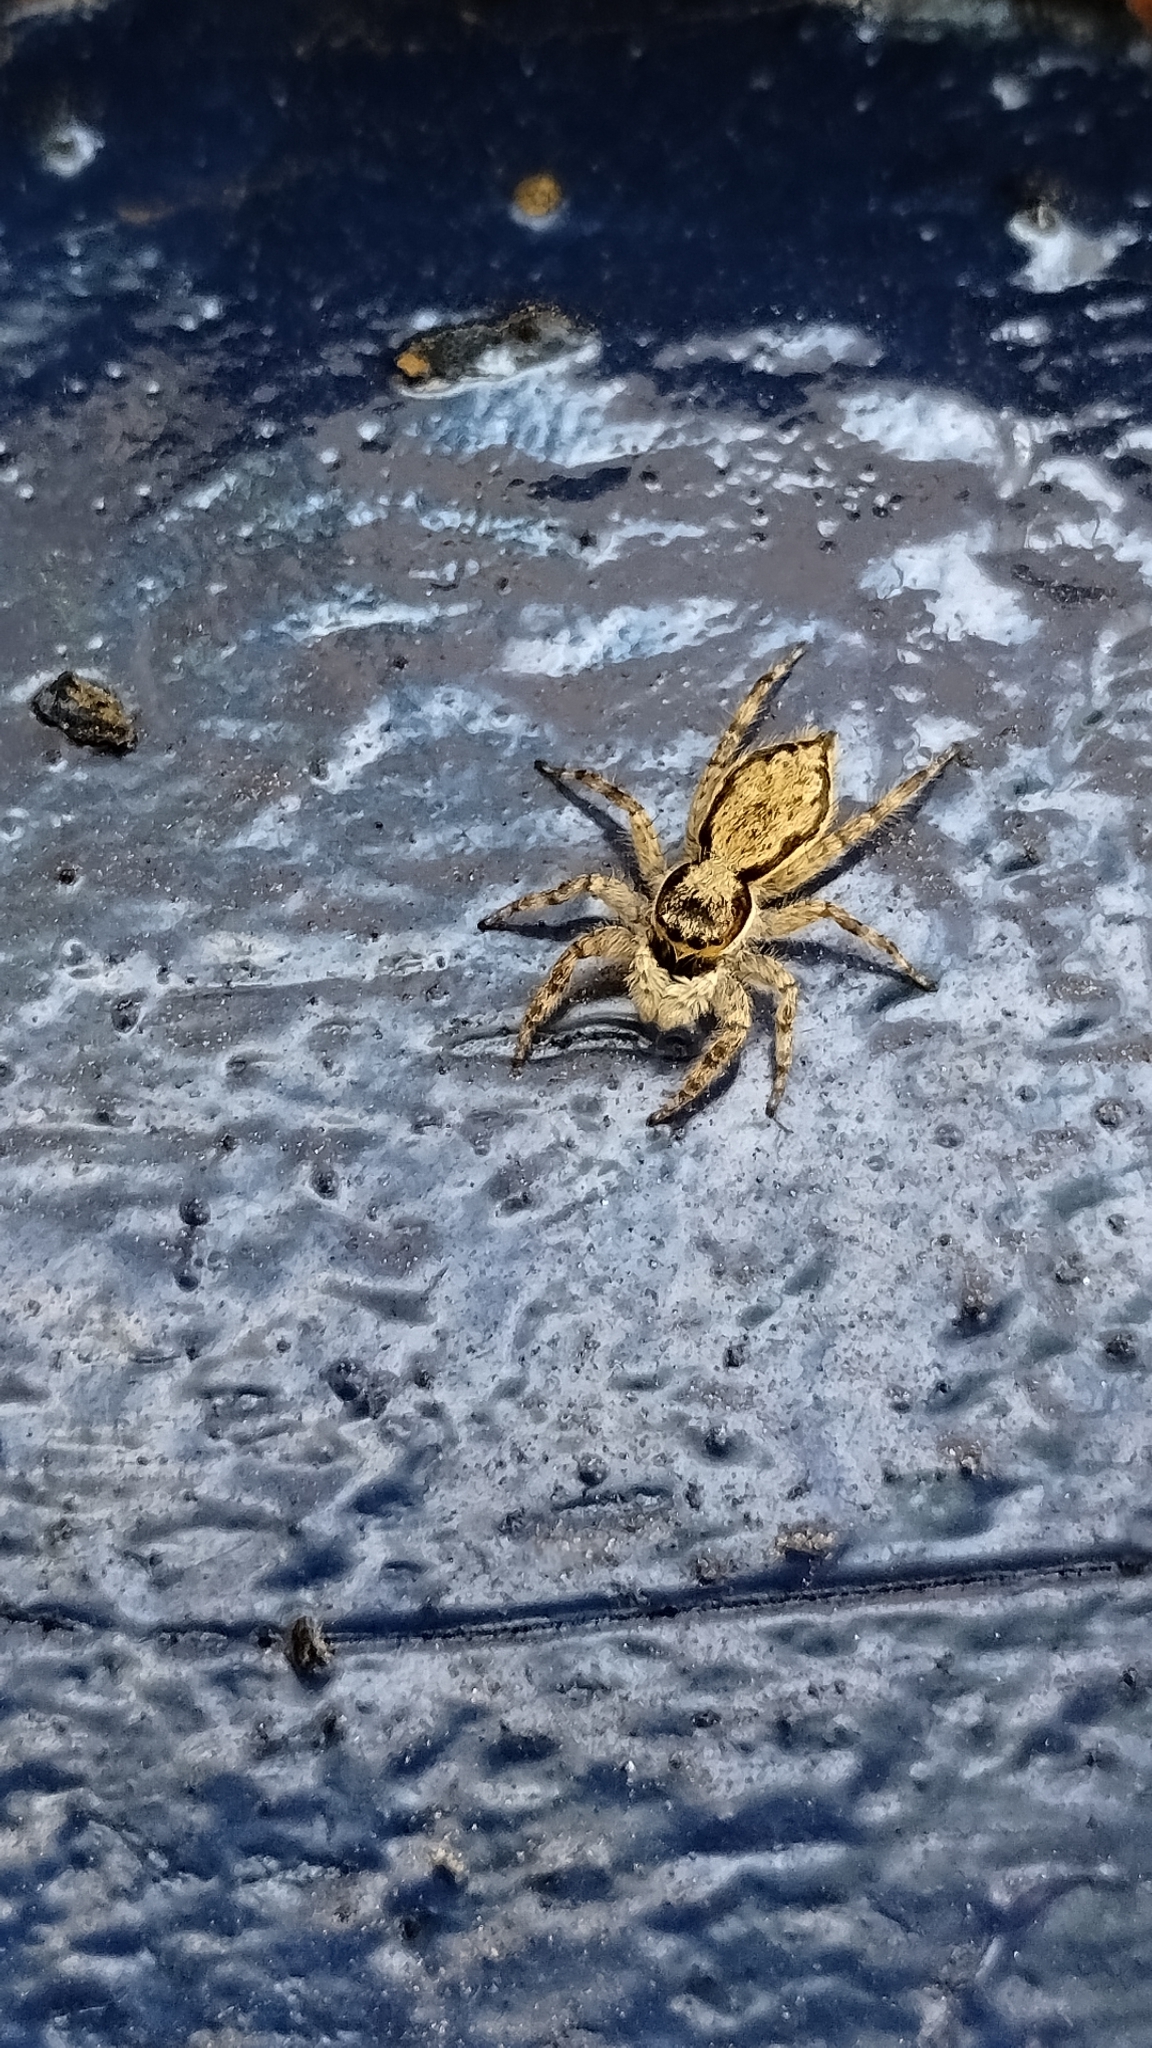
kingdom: Animalia
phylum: Arthropoda
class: Arachnida
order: Araneae
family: Salticidae
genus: Menemerus
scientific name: Menemerus bivittatus
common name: Gray wall jumper
